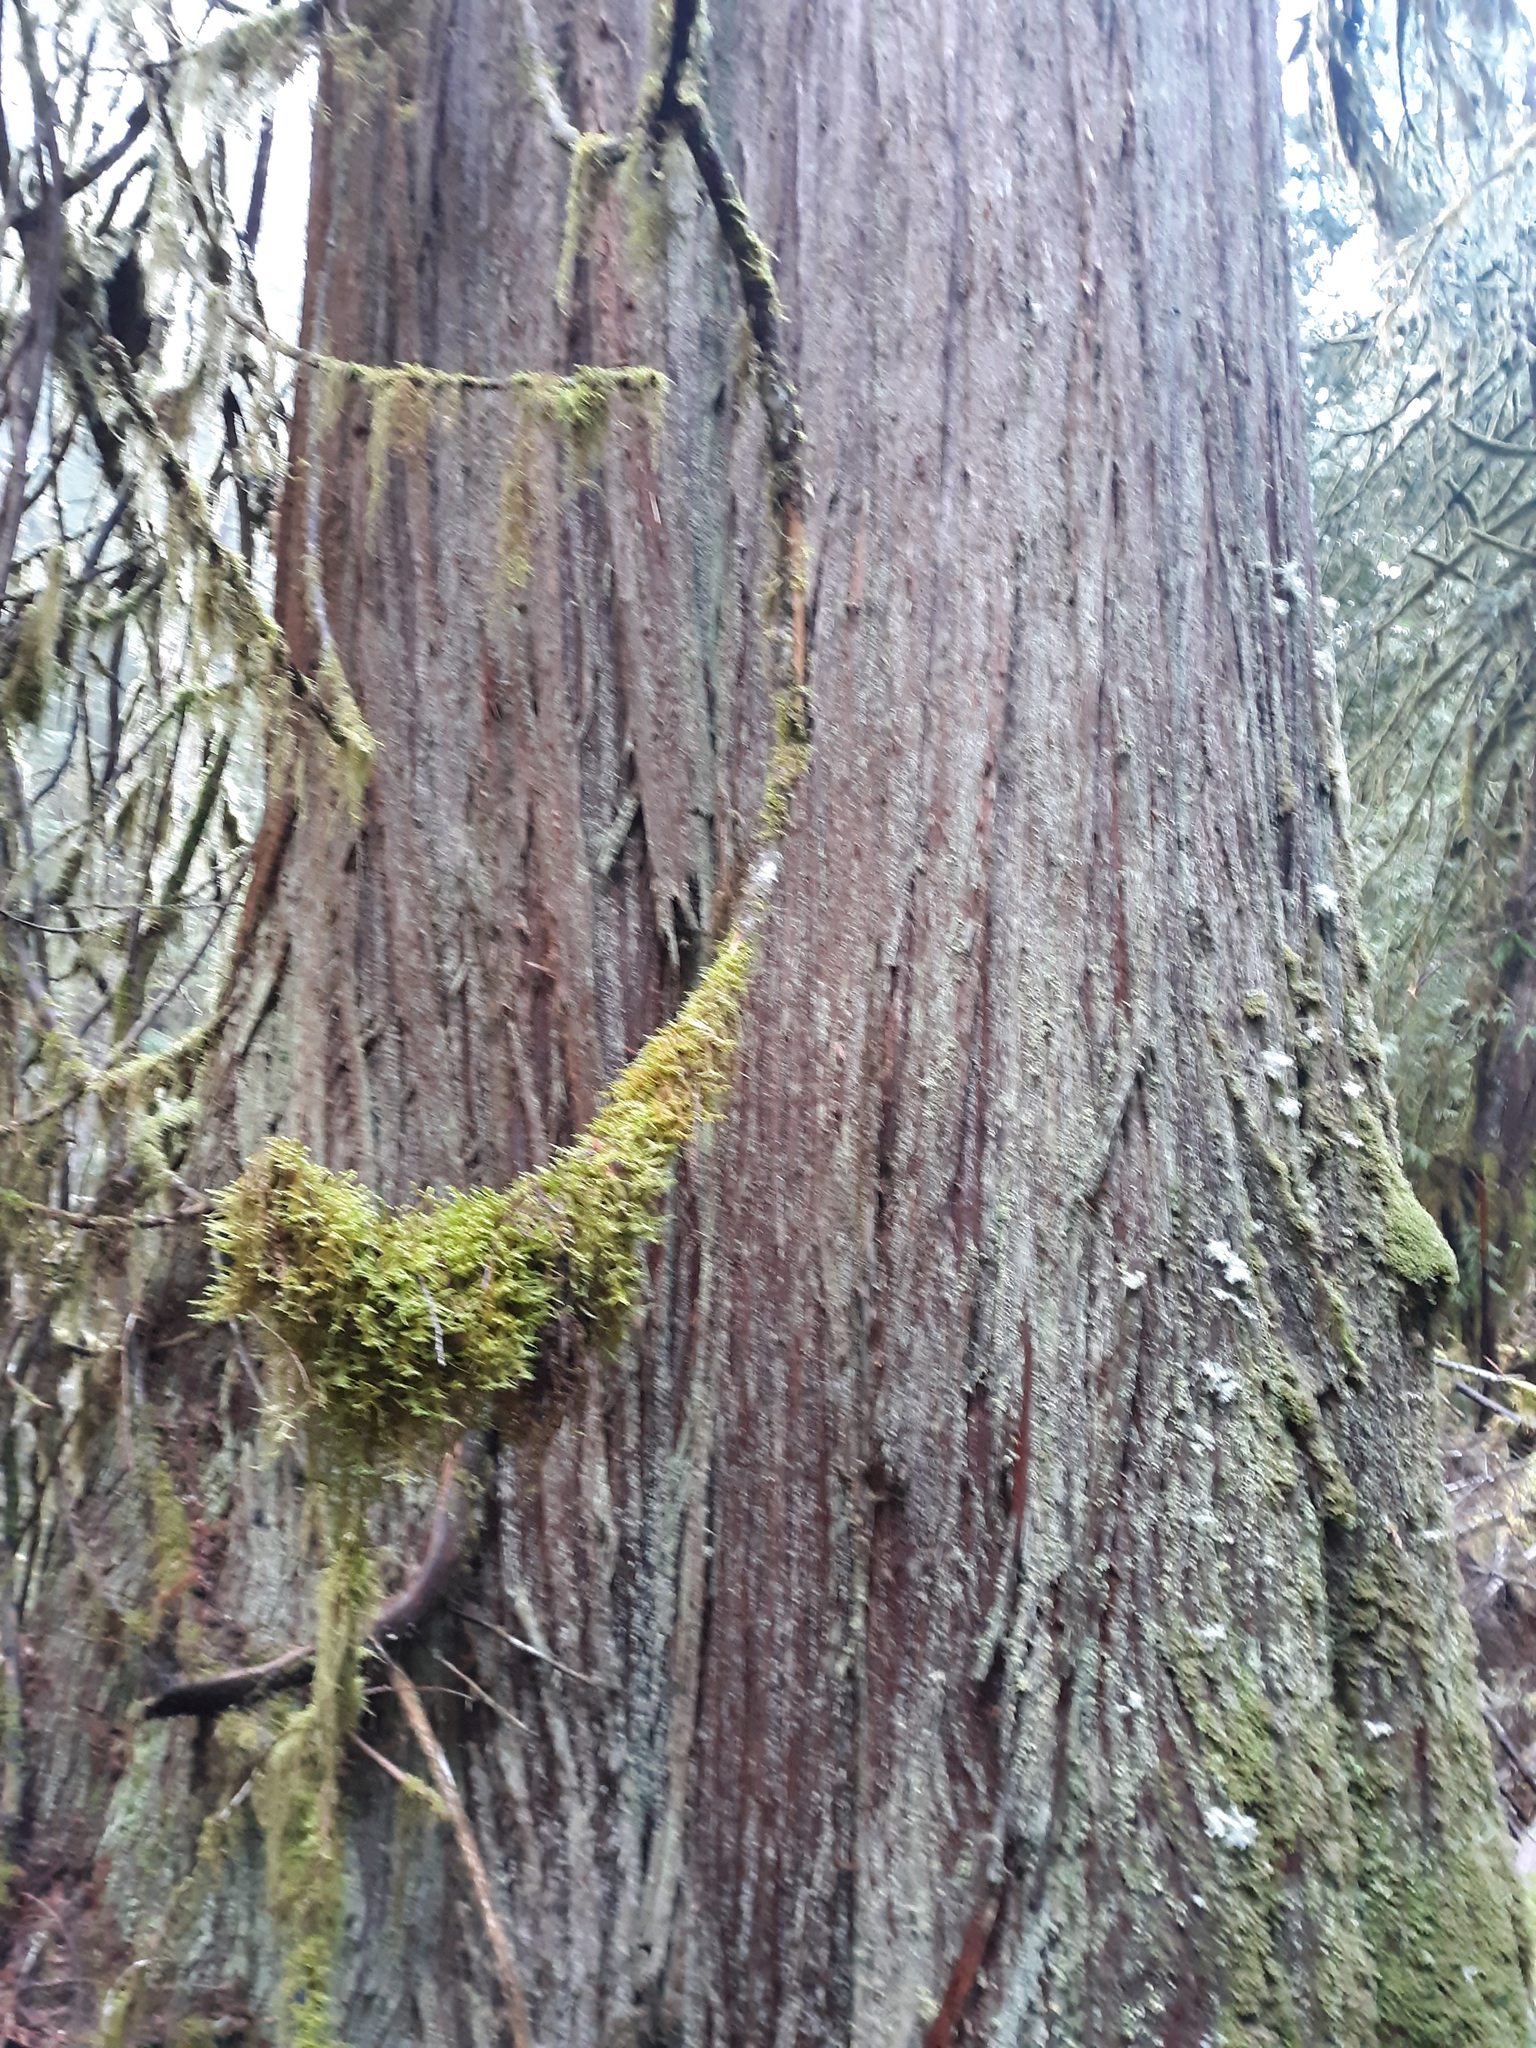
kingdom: Plantae
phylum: Tracheophyta
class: Pinopsida
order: Pinales
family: Cupressaceae
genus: Thuja
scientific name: Thuja plicata
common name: Western red-cedar
